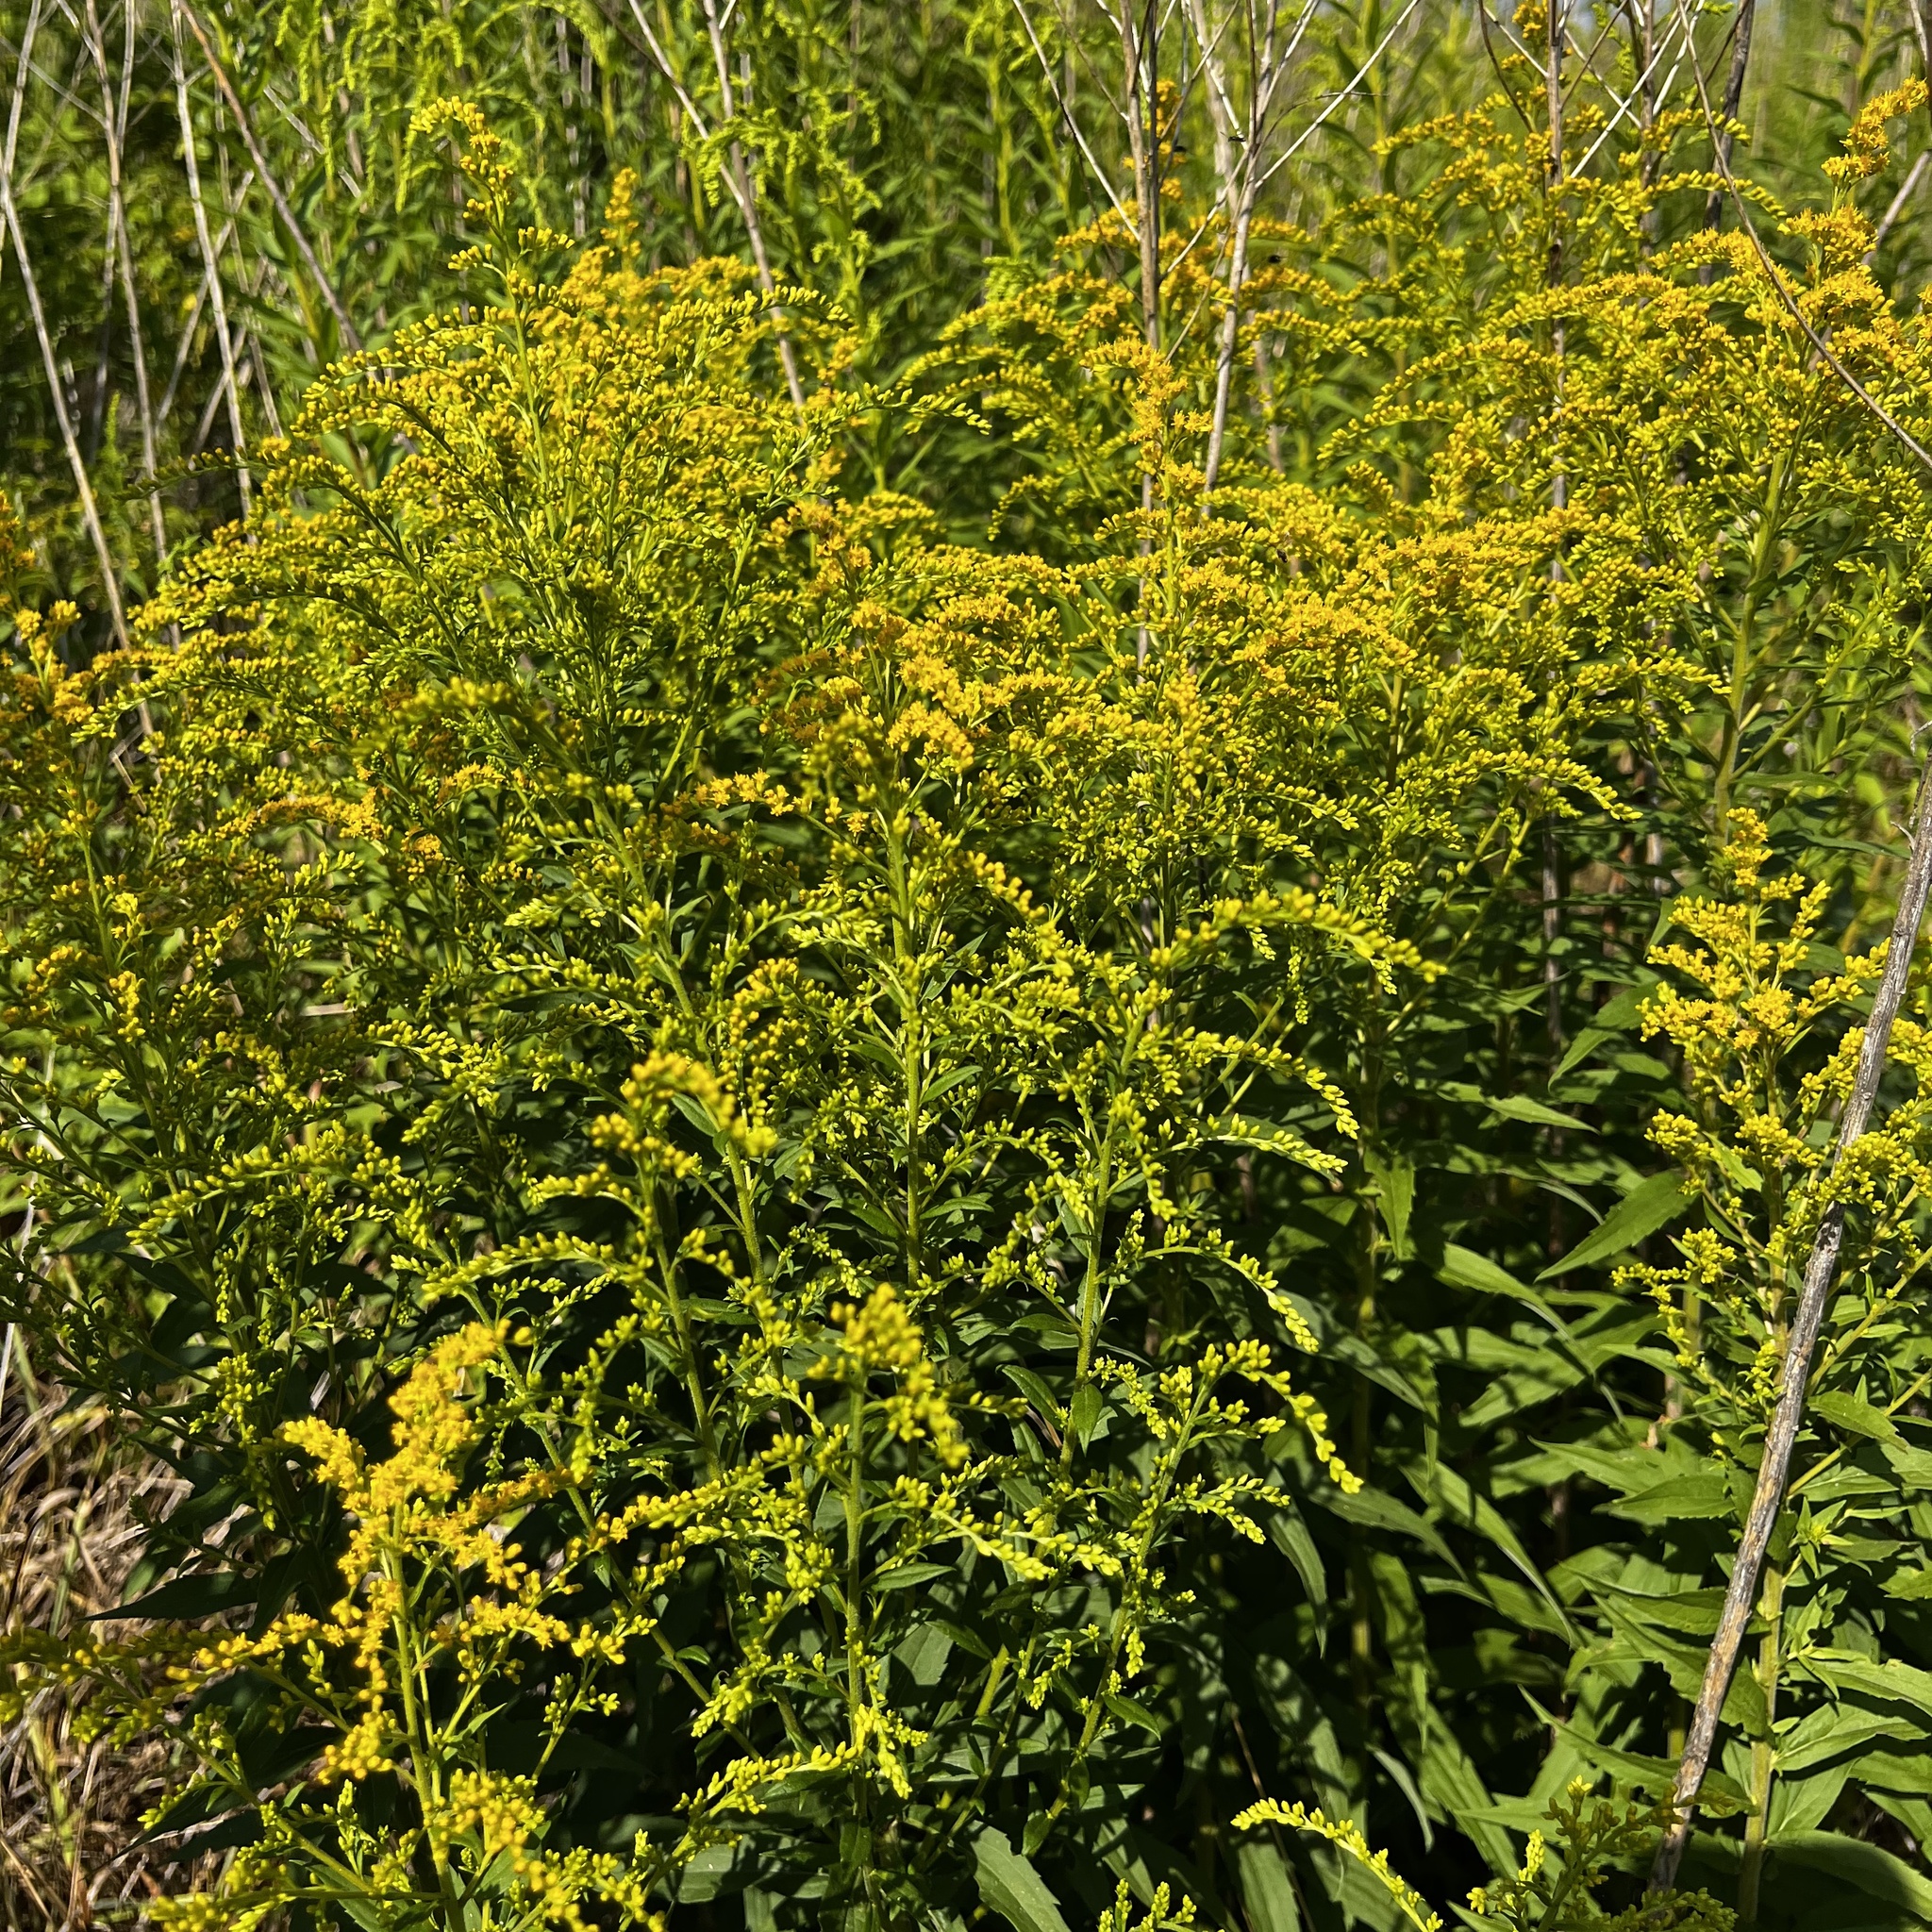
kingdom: Plantae
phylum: Tracheophyta
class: Magnoliopsida
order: Asterales
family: Asteraceae
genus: Solidago
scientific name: Solidago canadensis
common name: Canada goldenrod
